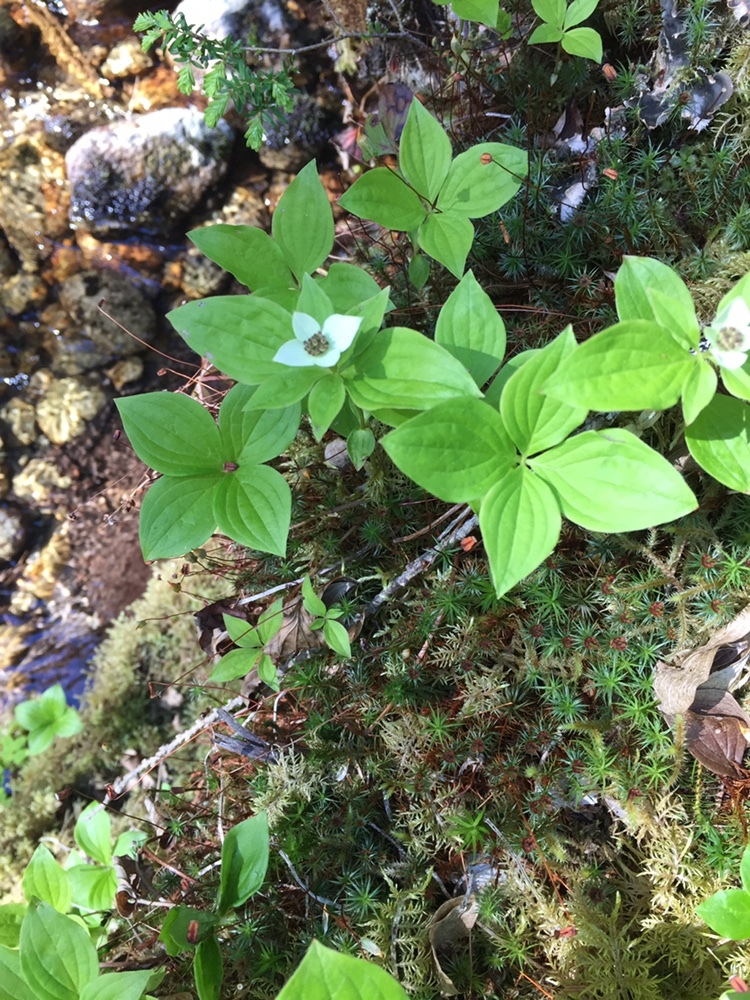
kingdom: Plantae
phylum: Tracheophyta
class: Magnoliopsida
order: Cornales
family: Cornaceae
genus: Cornus
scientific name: Cornus unalaschkensis
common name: Alaska bunchberry
